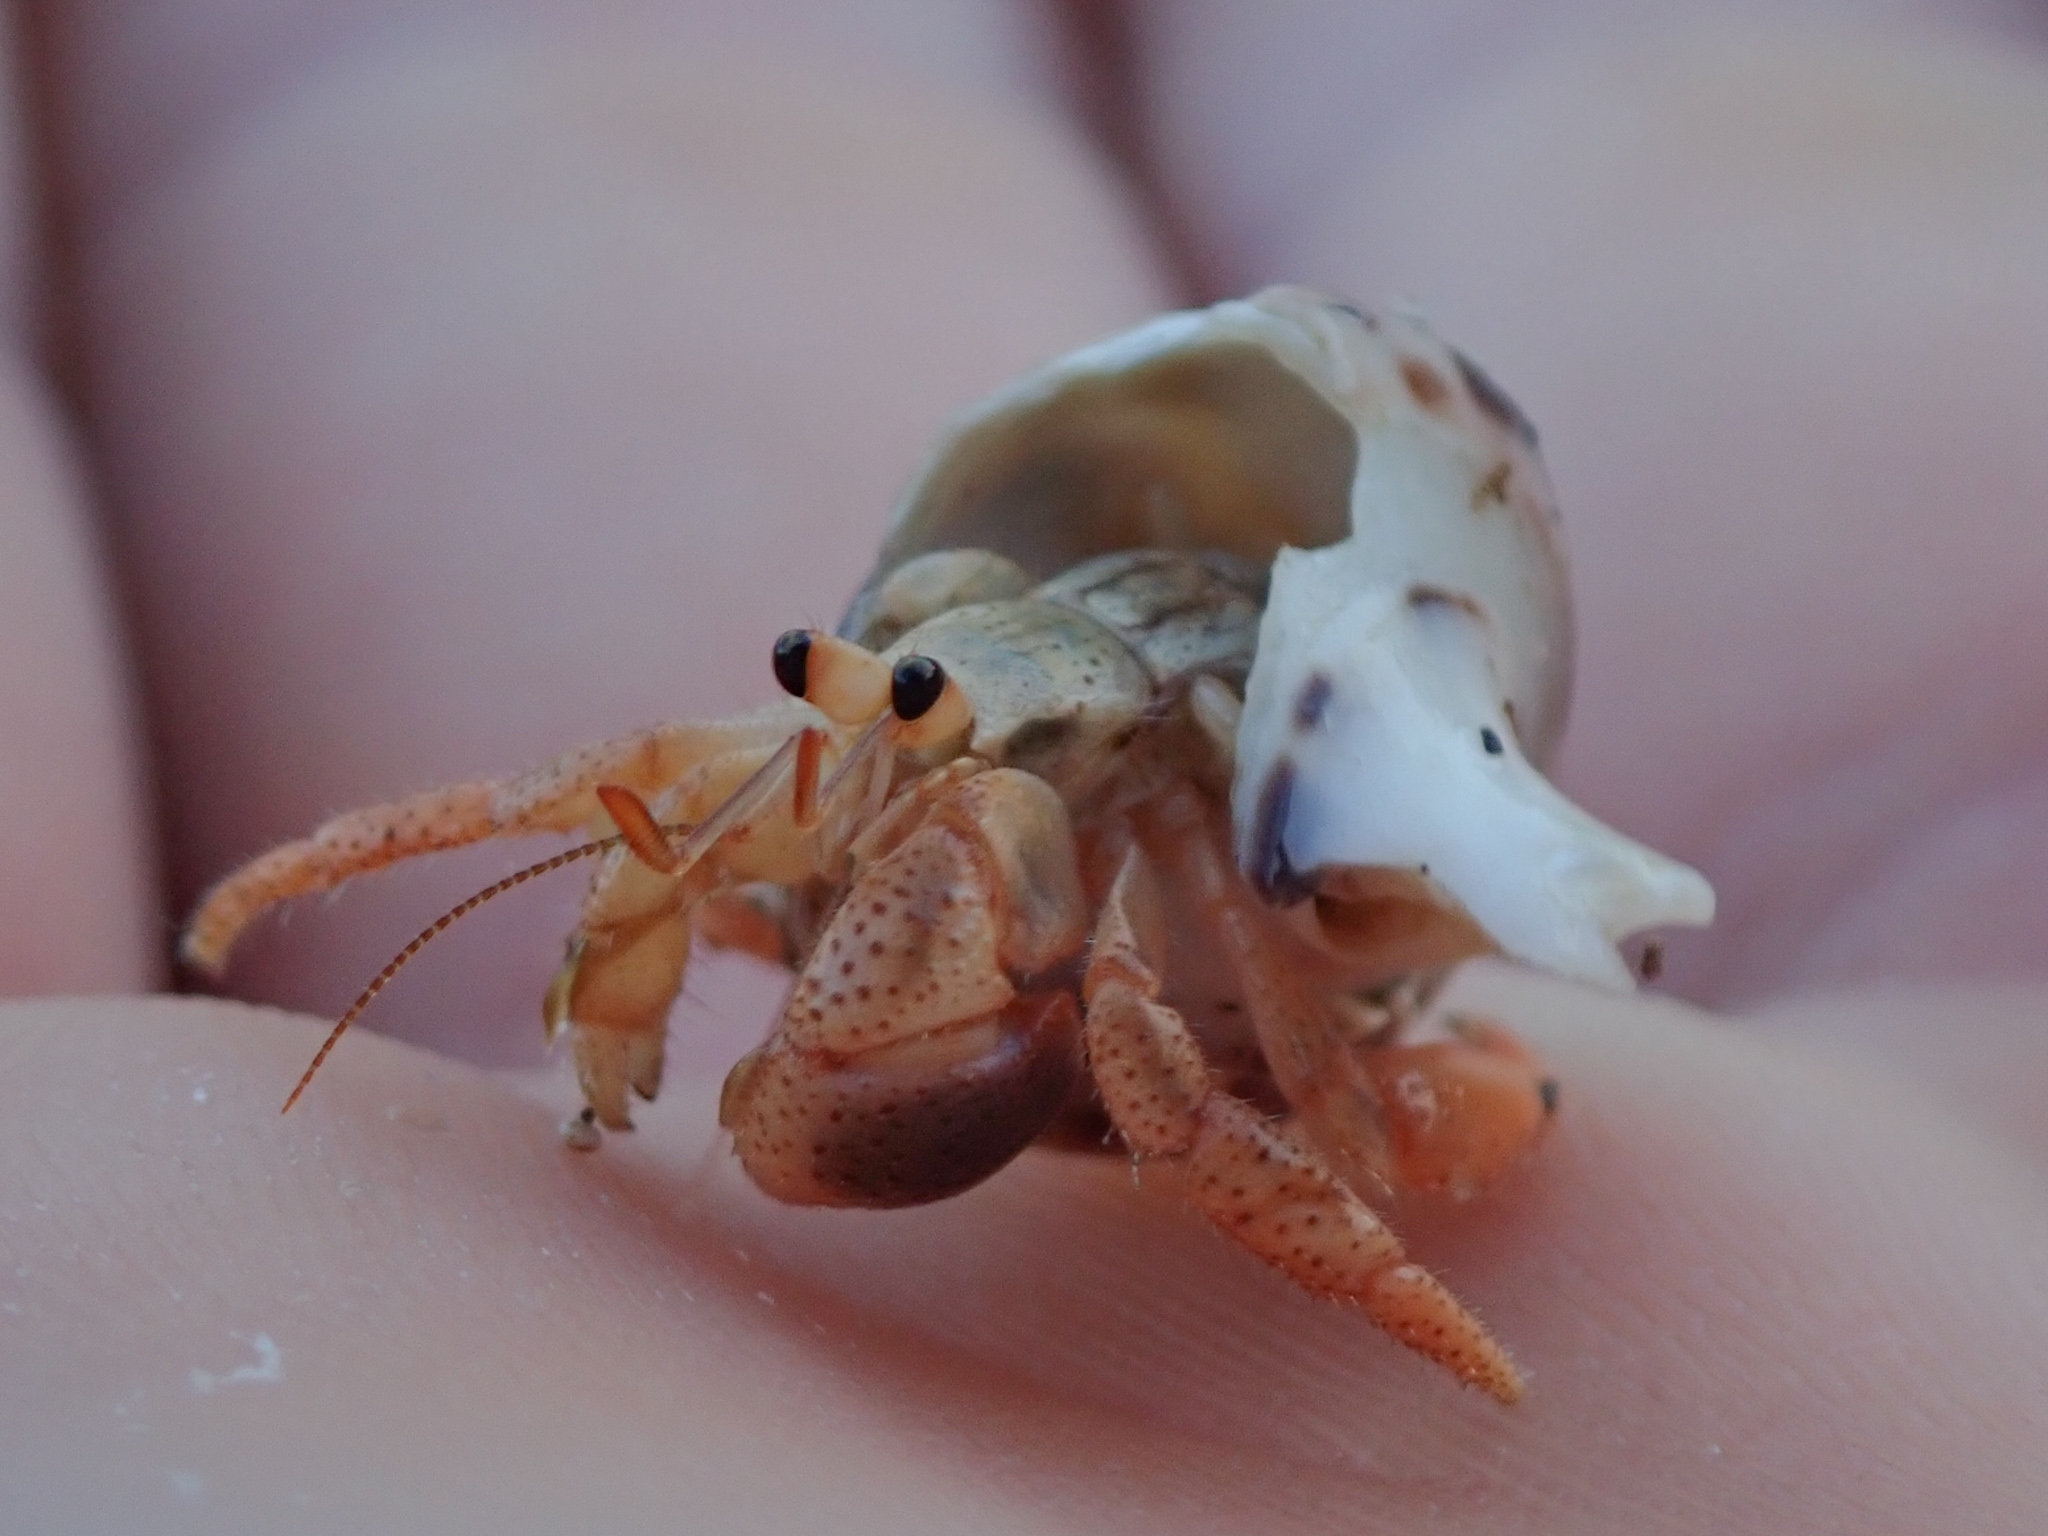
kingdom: Animalia
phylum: Arthropoda
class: Malacostraca
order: Decapoda
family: Coenobitidae
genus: Coenobita
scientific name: Coenobita clypeatus
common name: Caribbean hermit crab
